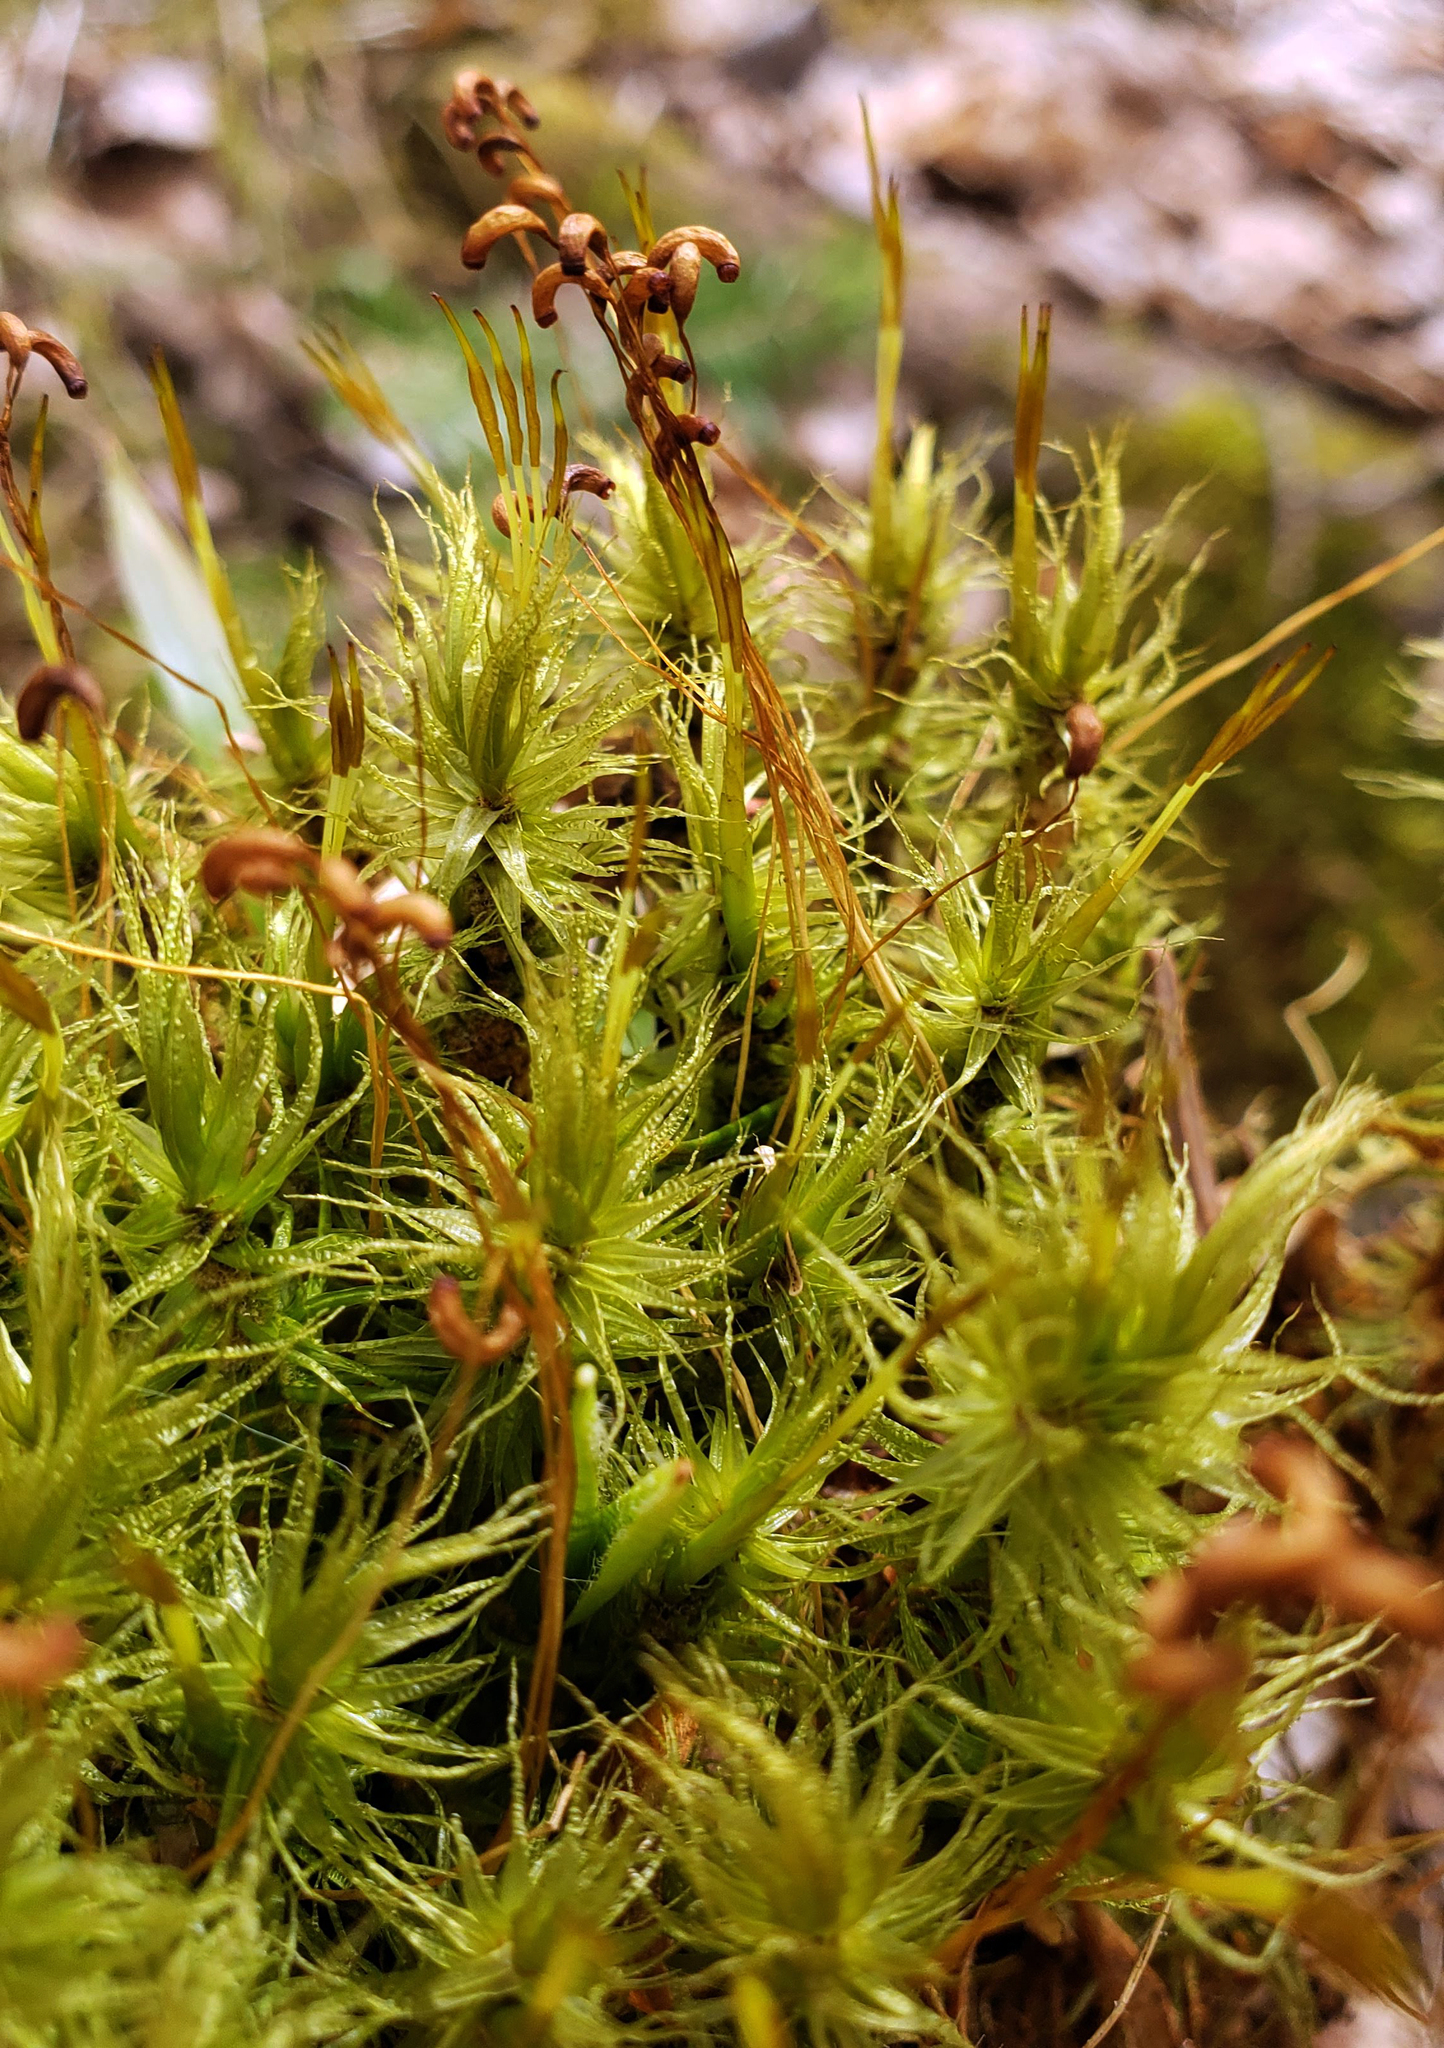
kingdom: Plantae
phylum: Bryophyta
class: Bryopsida
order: Dicranales
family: Dicranaceae
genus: Dicranum
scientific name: Dicranum polysetum
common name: Rugose fork-moss
